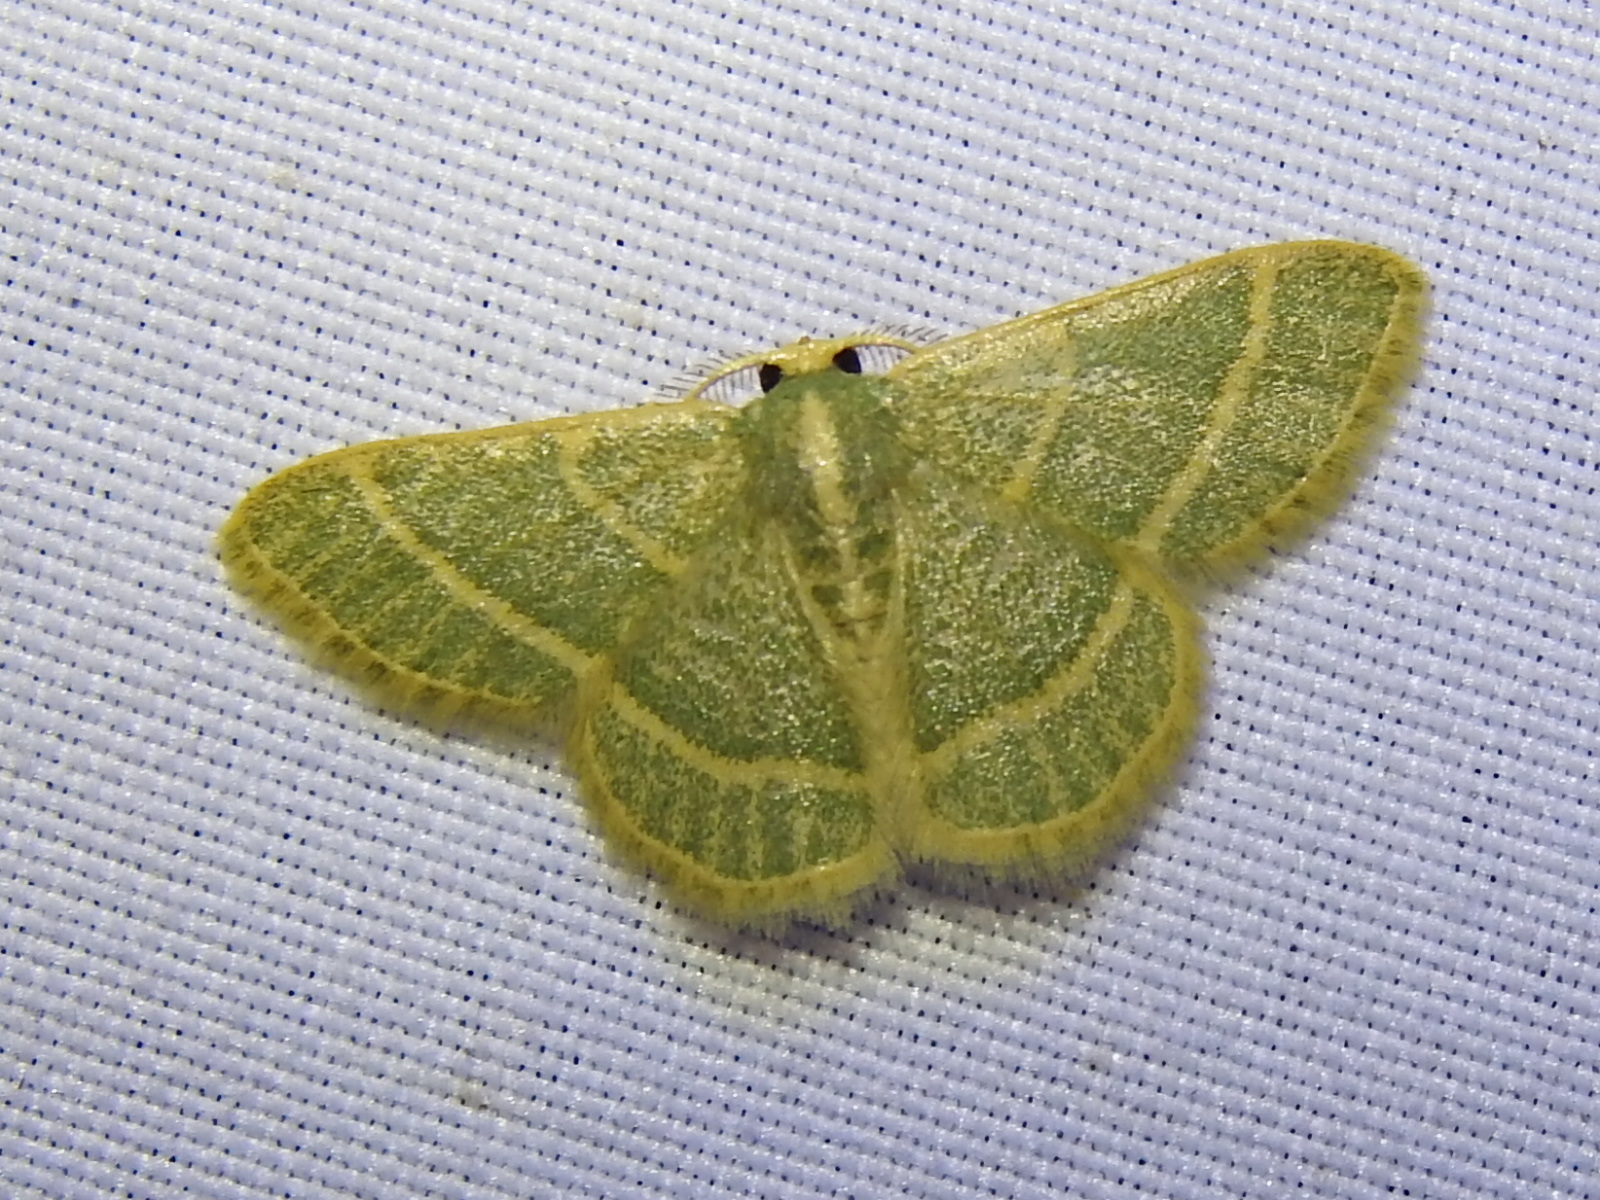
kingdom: Animalia
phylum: Arthropoda
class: Insecta
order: Lepidoptera
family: Geometridae
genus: Chlorochlamys
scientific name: Chlorochlamys chloroleucaria
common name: Blackberry looper
